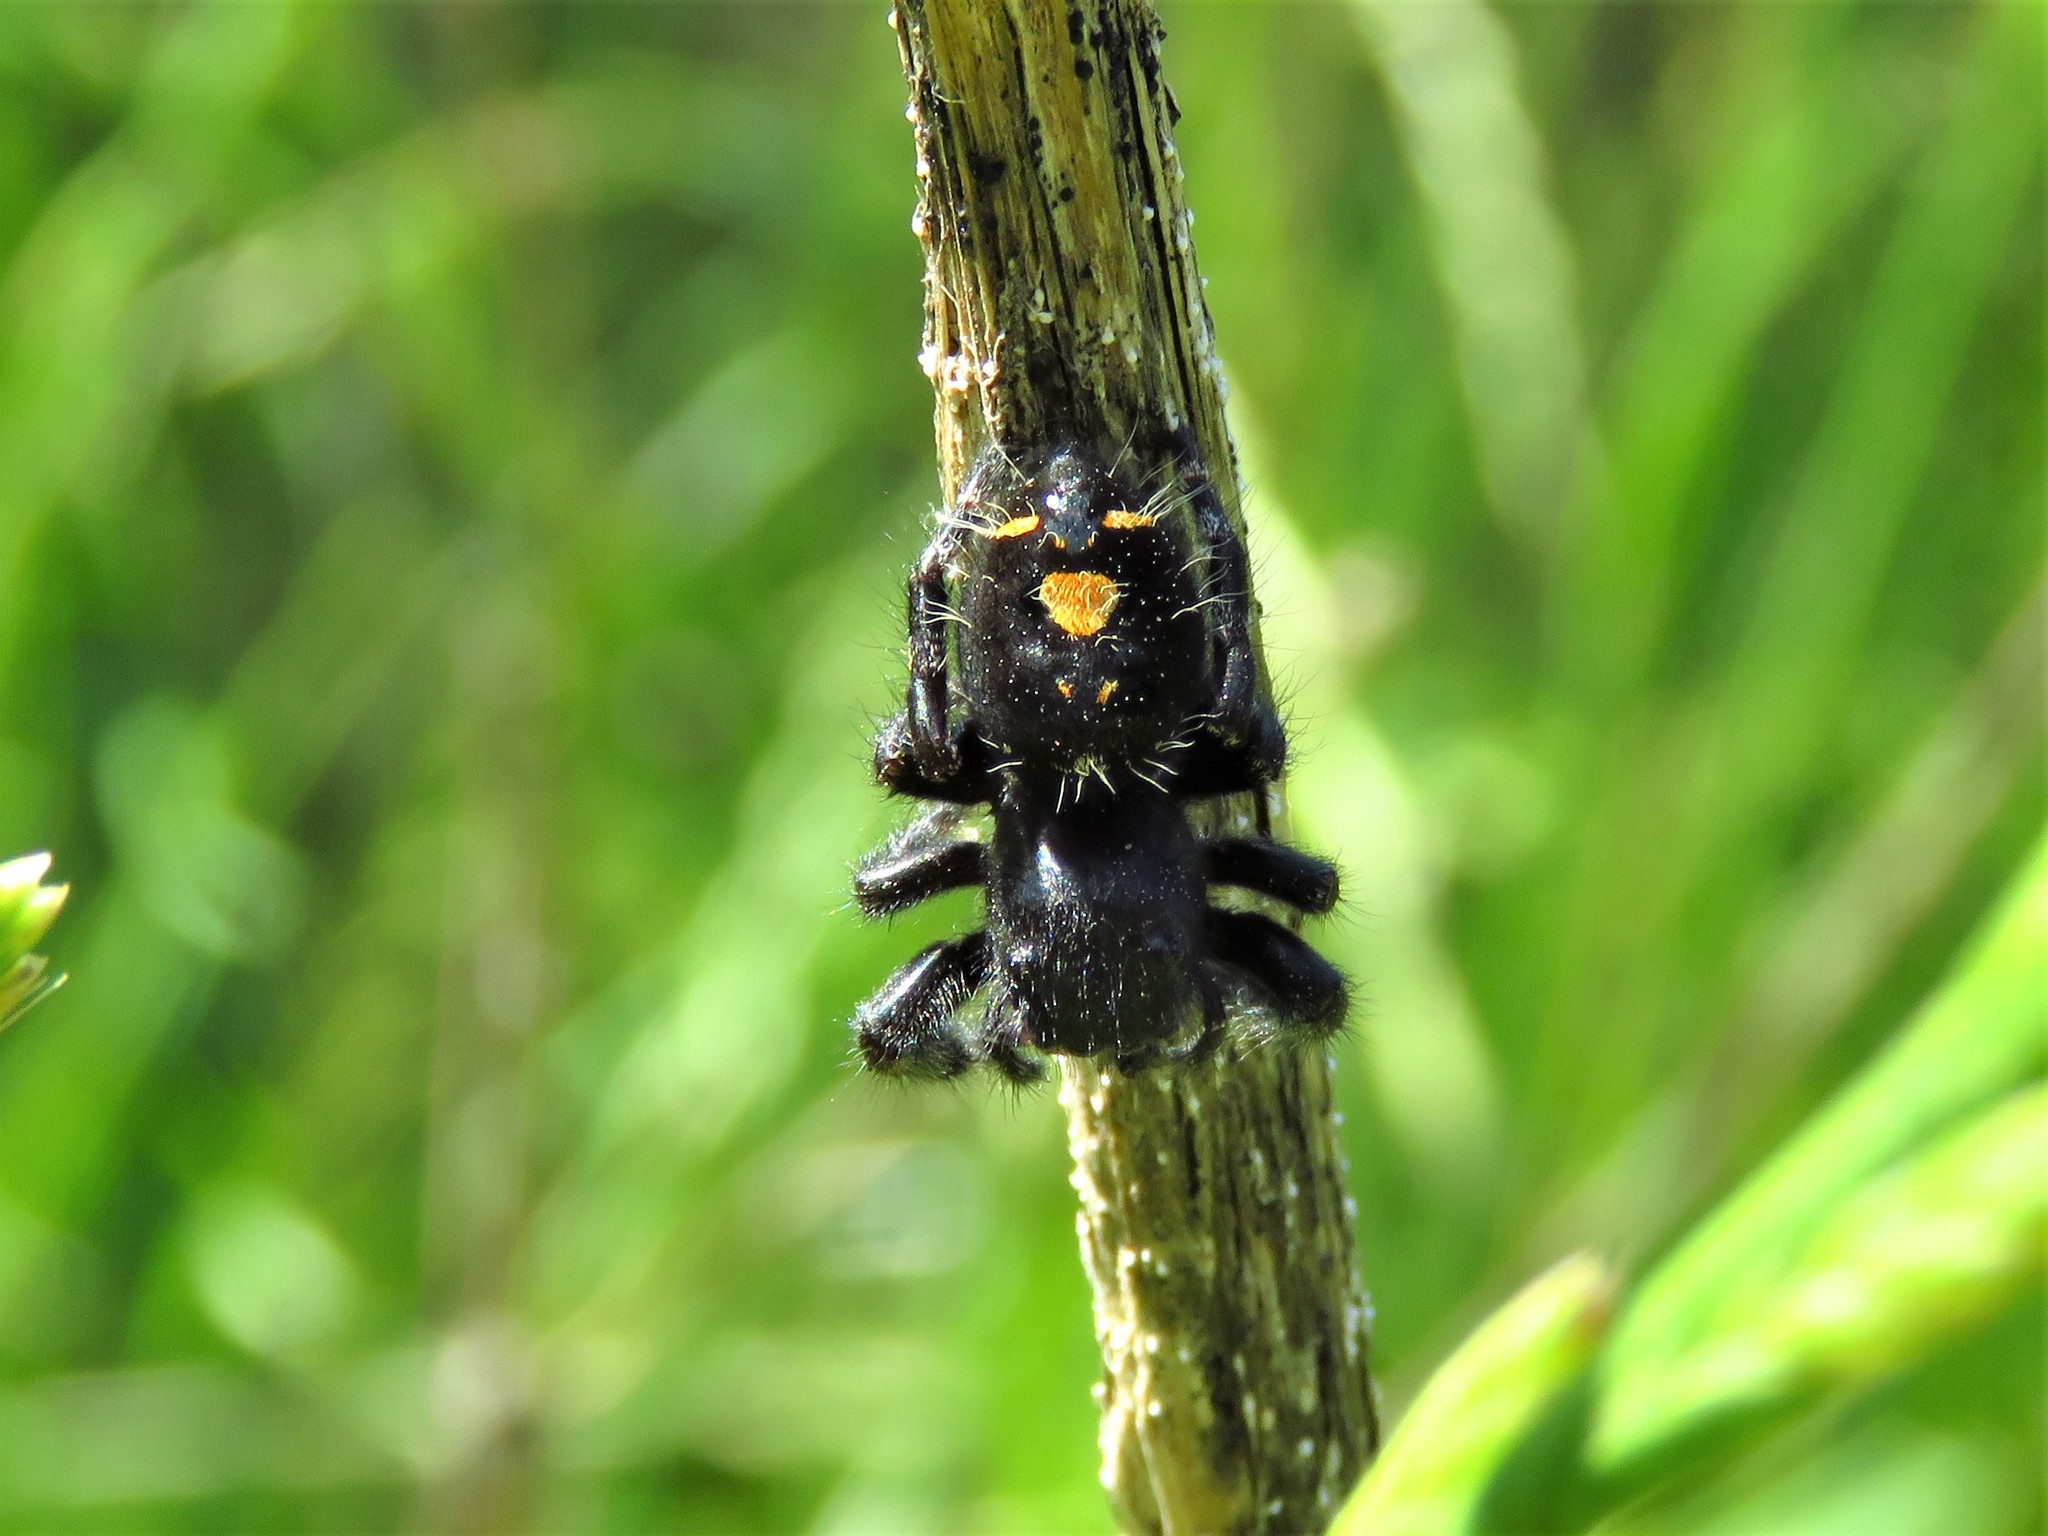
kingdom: Animalia
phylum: Arthropoda
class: Arachnida
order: Araneae
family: Salticidae
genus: Phidippus
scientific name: Phidippus audax
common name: Bold jumper
